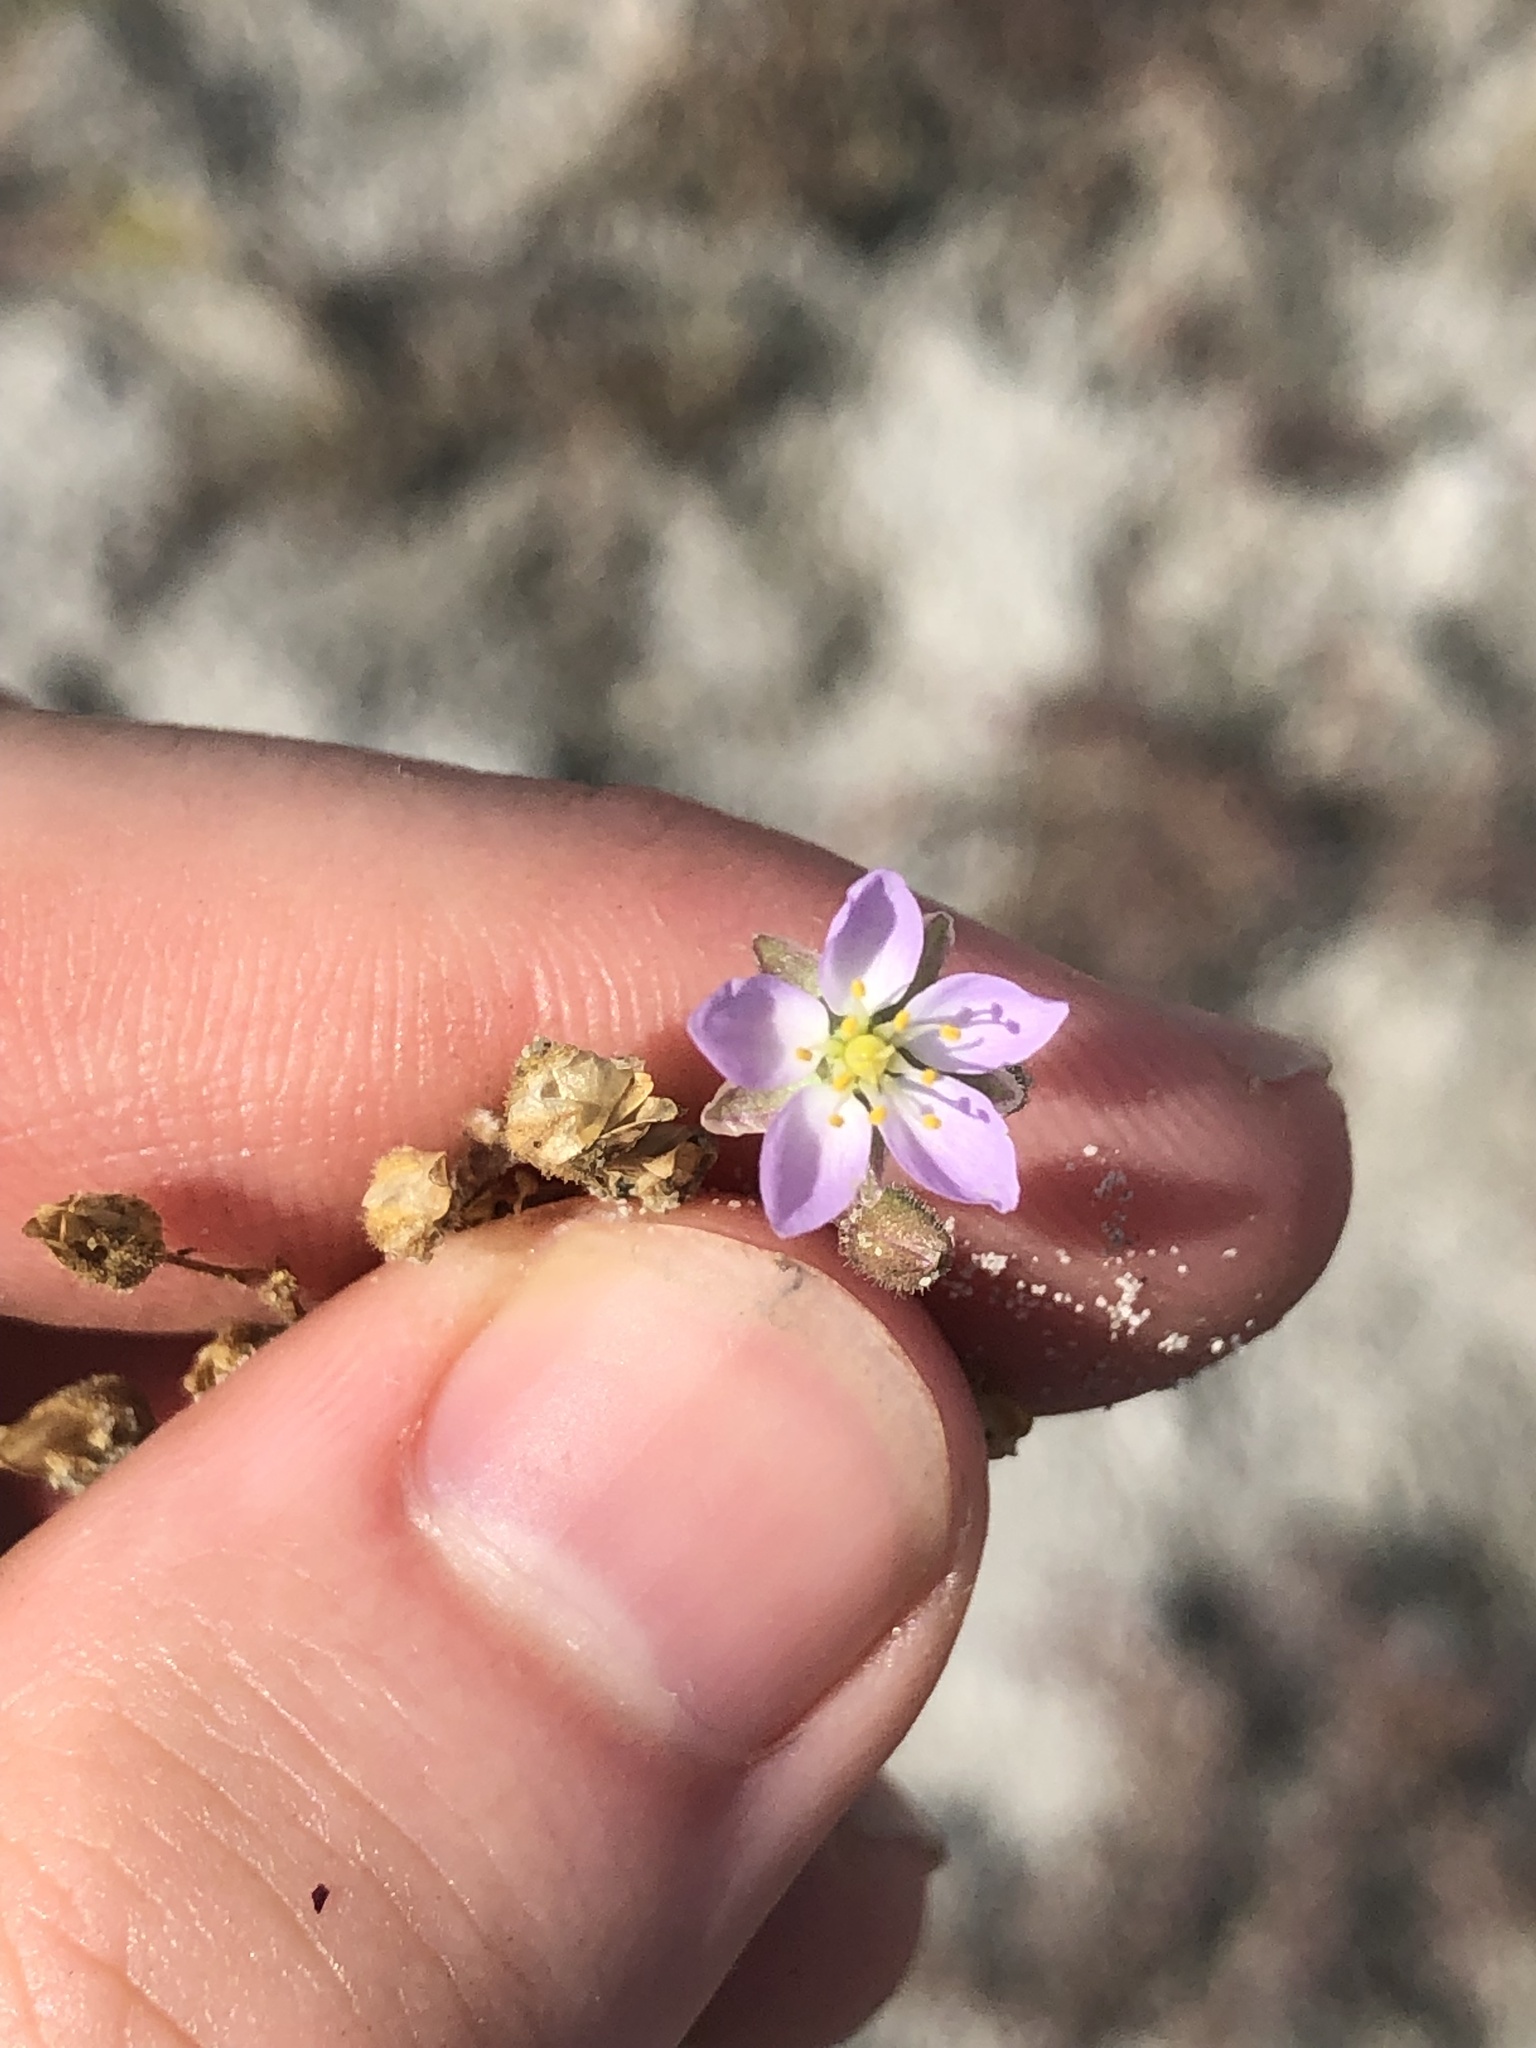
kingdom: Plantae
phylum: Tracheophyta
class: Magnoliopsida
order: Caryophyllales
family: Caryophyllaceae
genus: Spergularia
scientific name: Spergularia media
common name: Greater sea-spurrey
